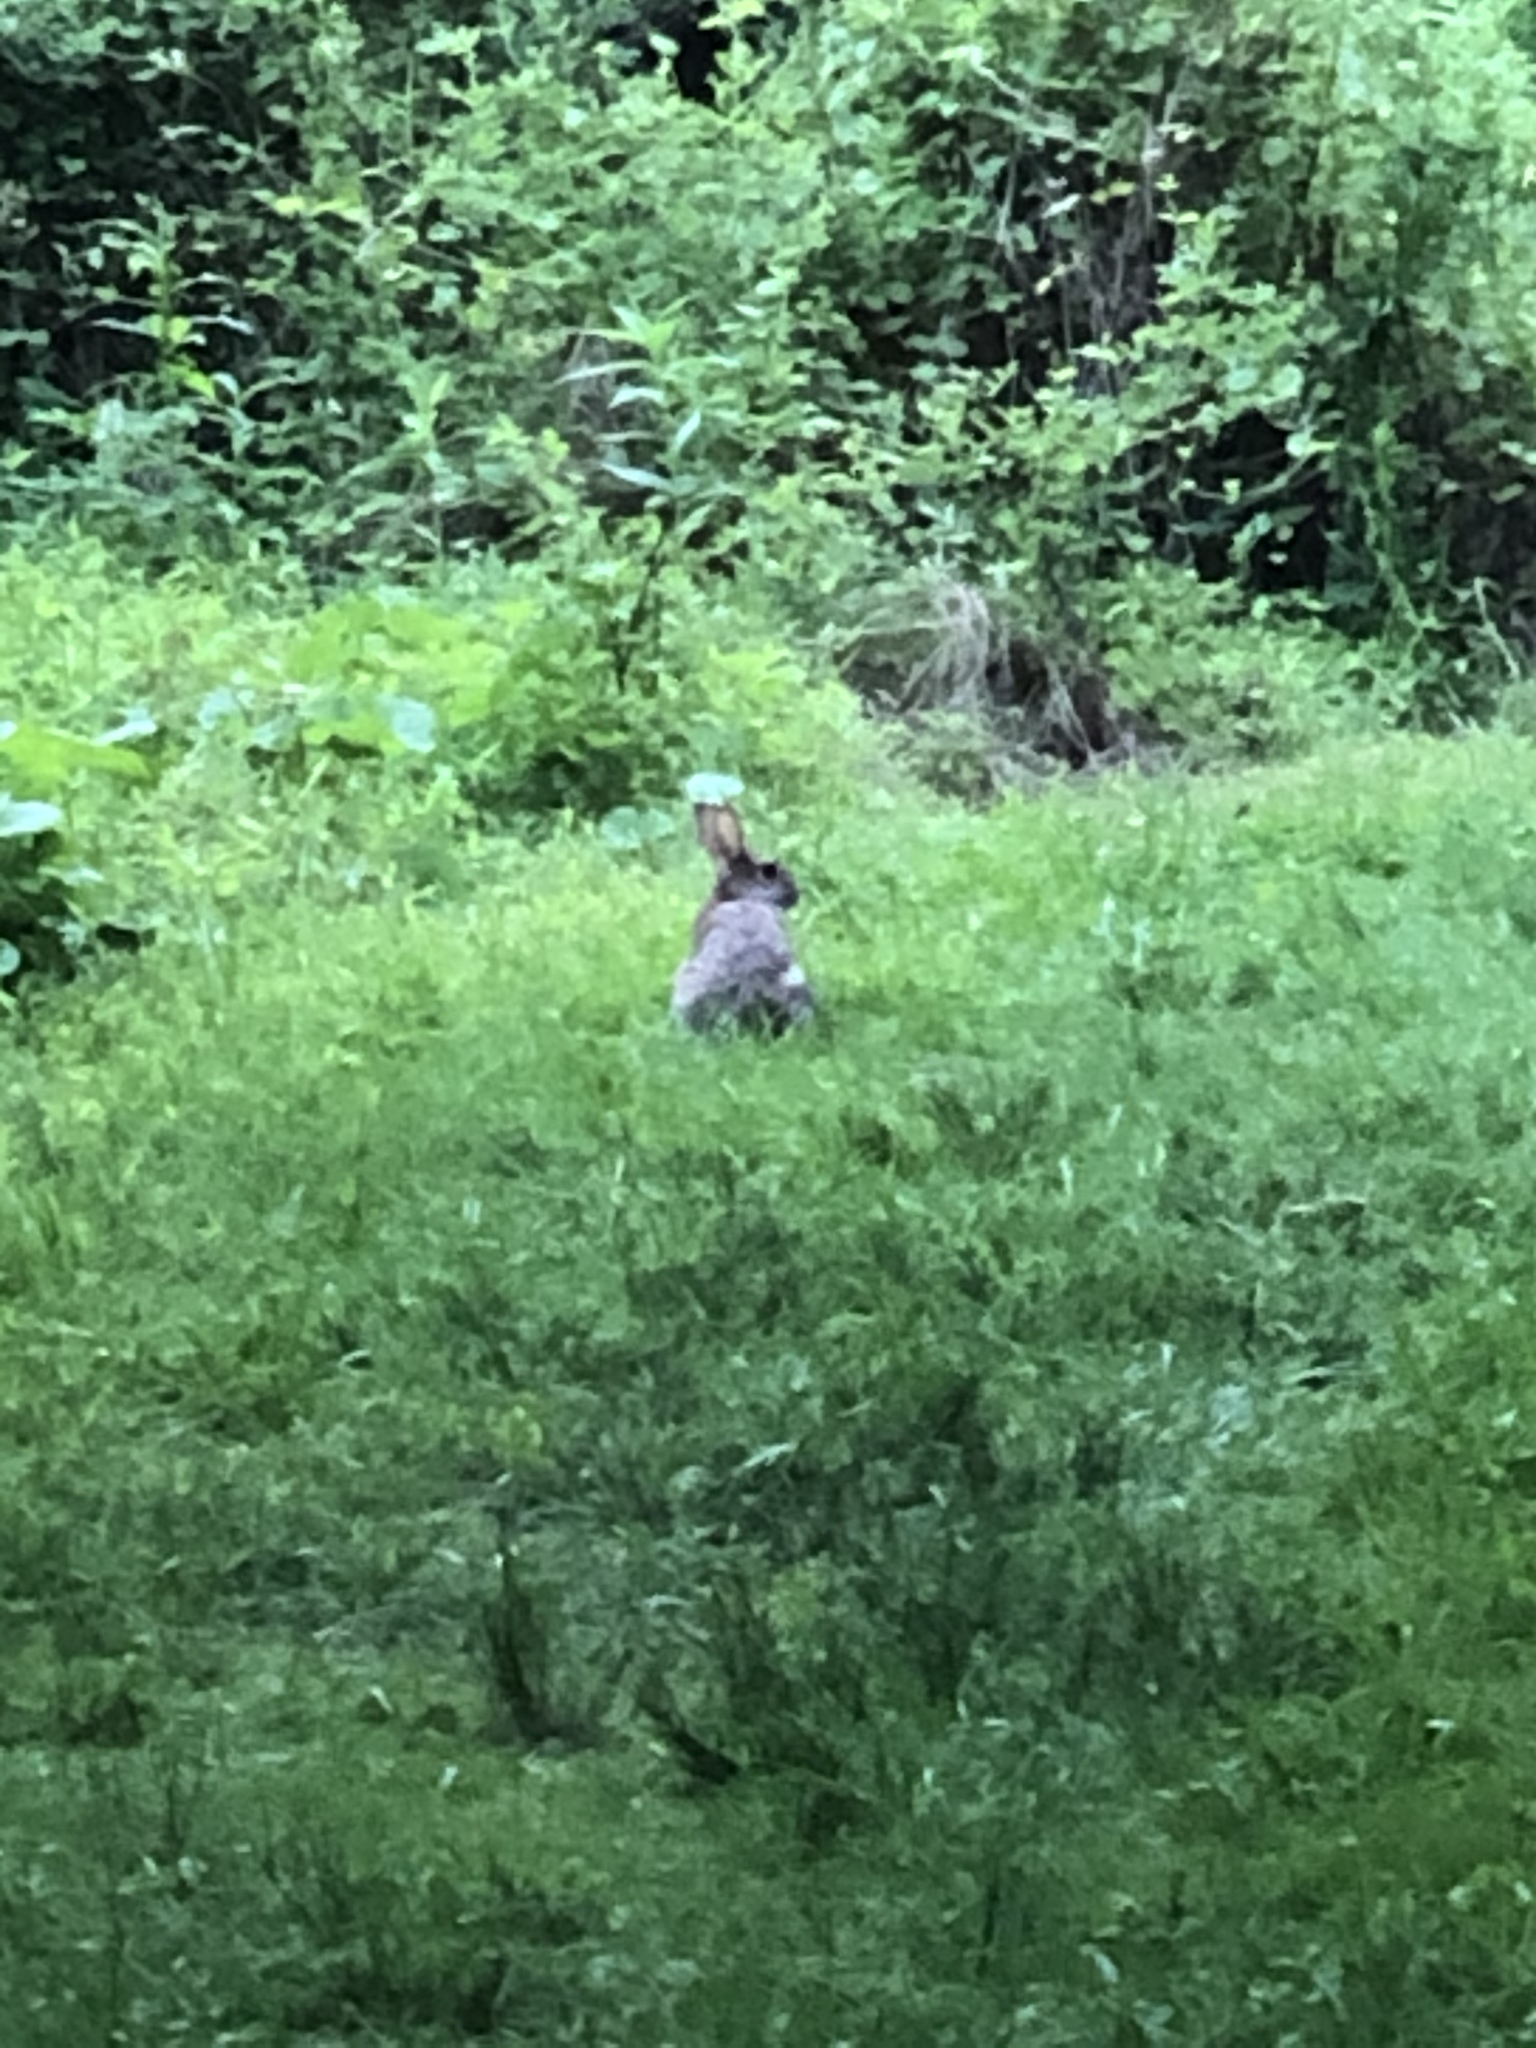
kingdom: Animalia
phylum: Chordata
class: Mammalia
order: Lagomorpha
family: Leporidae
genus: Sylvilagus
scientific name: Sylvilagus floridanus
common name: Eastern cottontail
